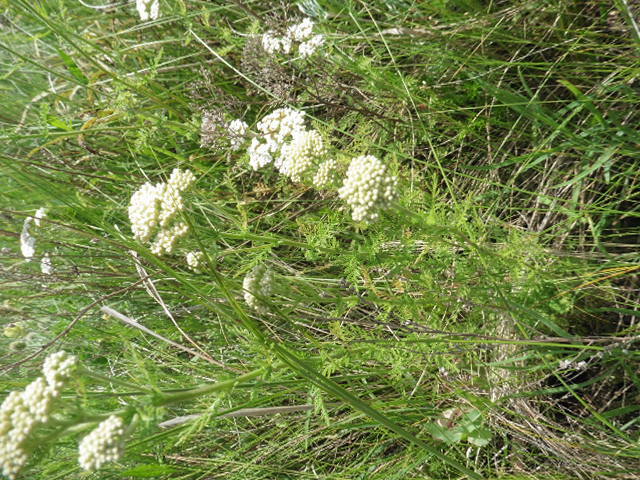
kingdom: Plantae
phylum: Tracheophyta
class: Magnoliopsida
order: Asterales
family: Asteraceae
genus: Achillea
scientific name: Achillea nobilis
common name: Noble yarrow
